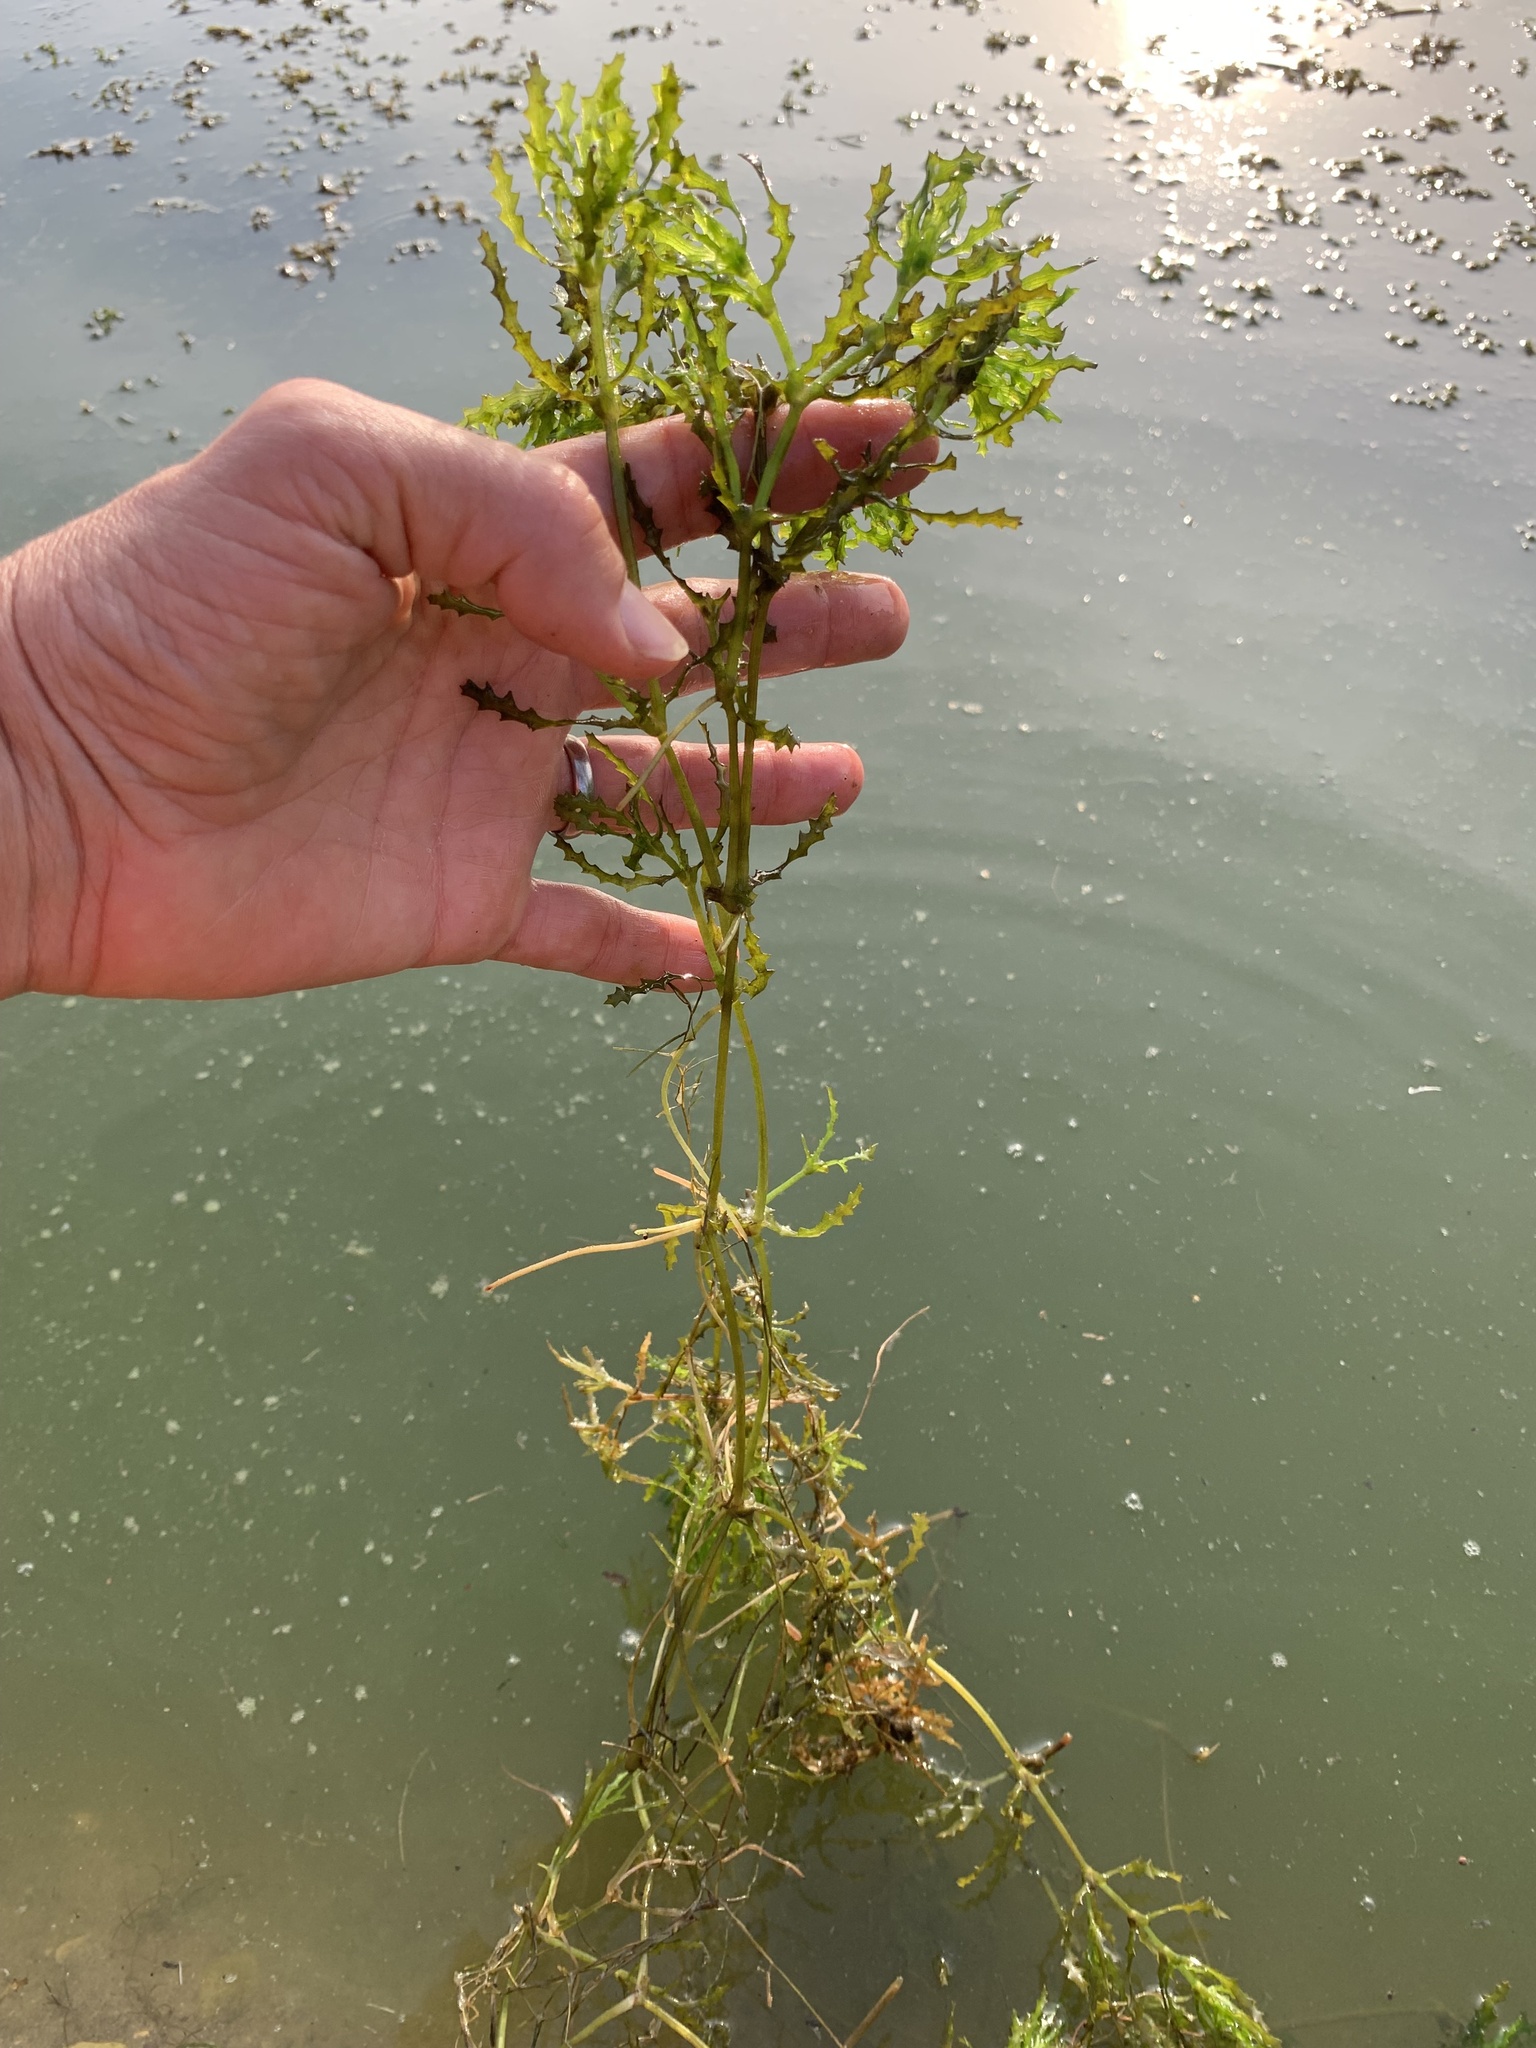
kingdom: Plantae
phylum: Tracheophyta
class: Liliopsida
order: Alismatales
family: Hydrocharitaceae
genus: Najas
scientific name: Najas marina
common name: Holly-leaved naiad
